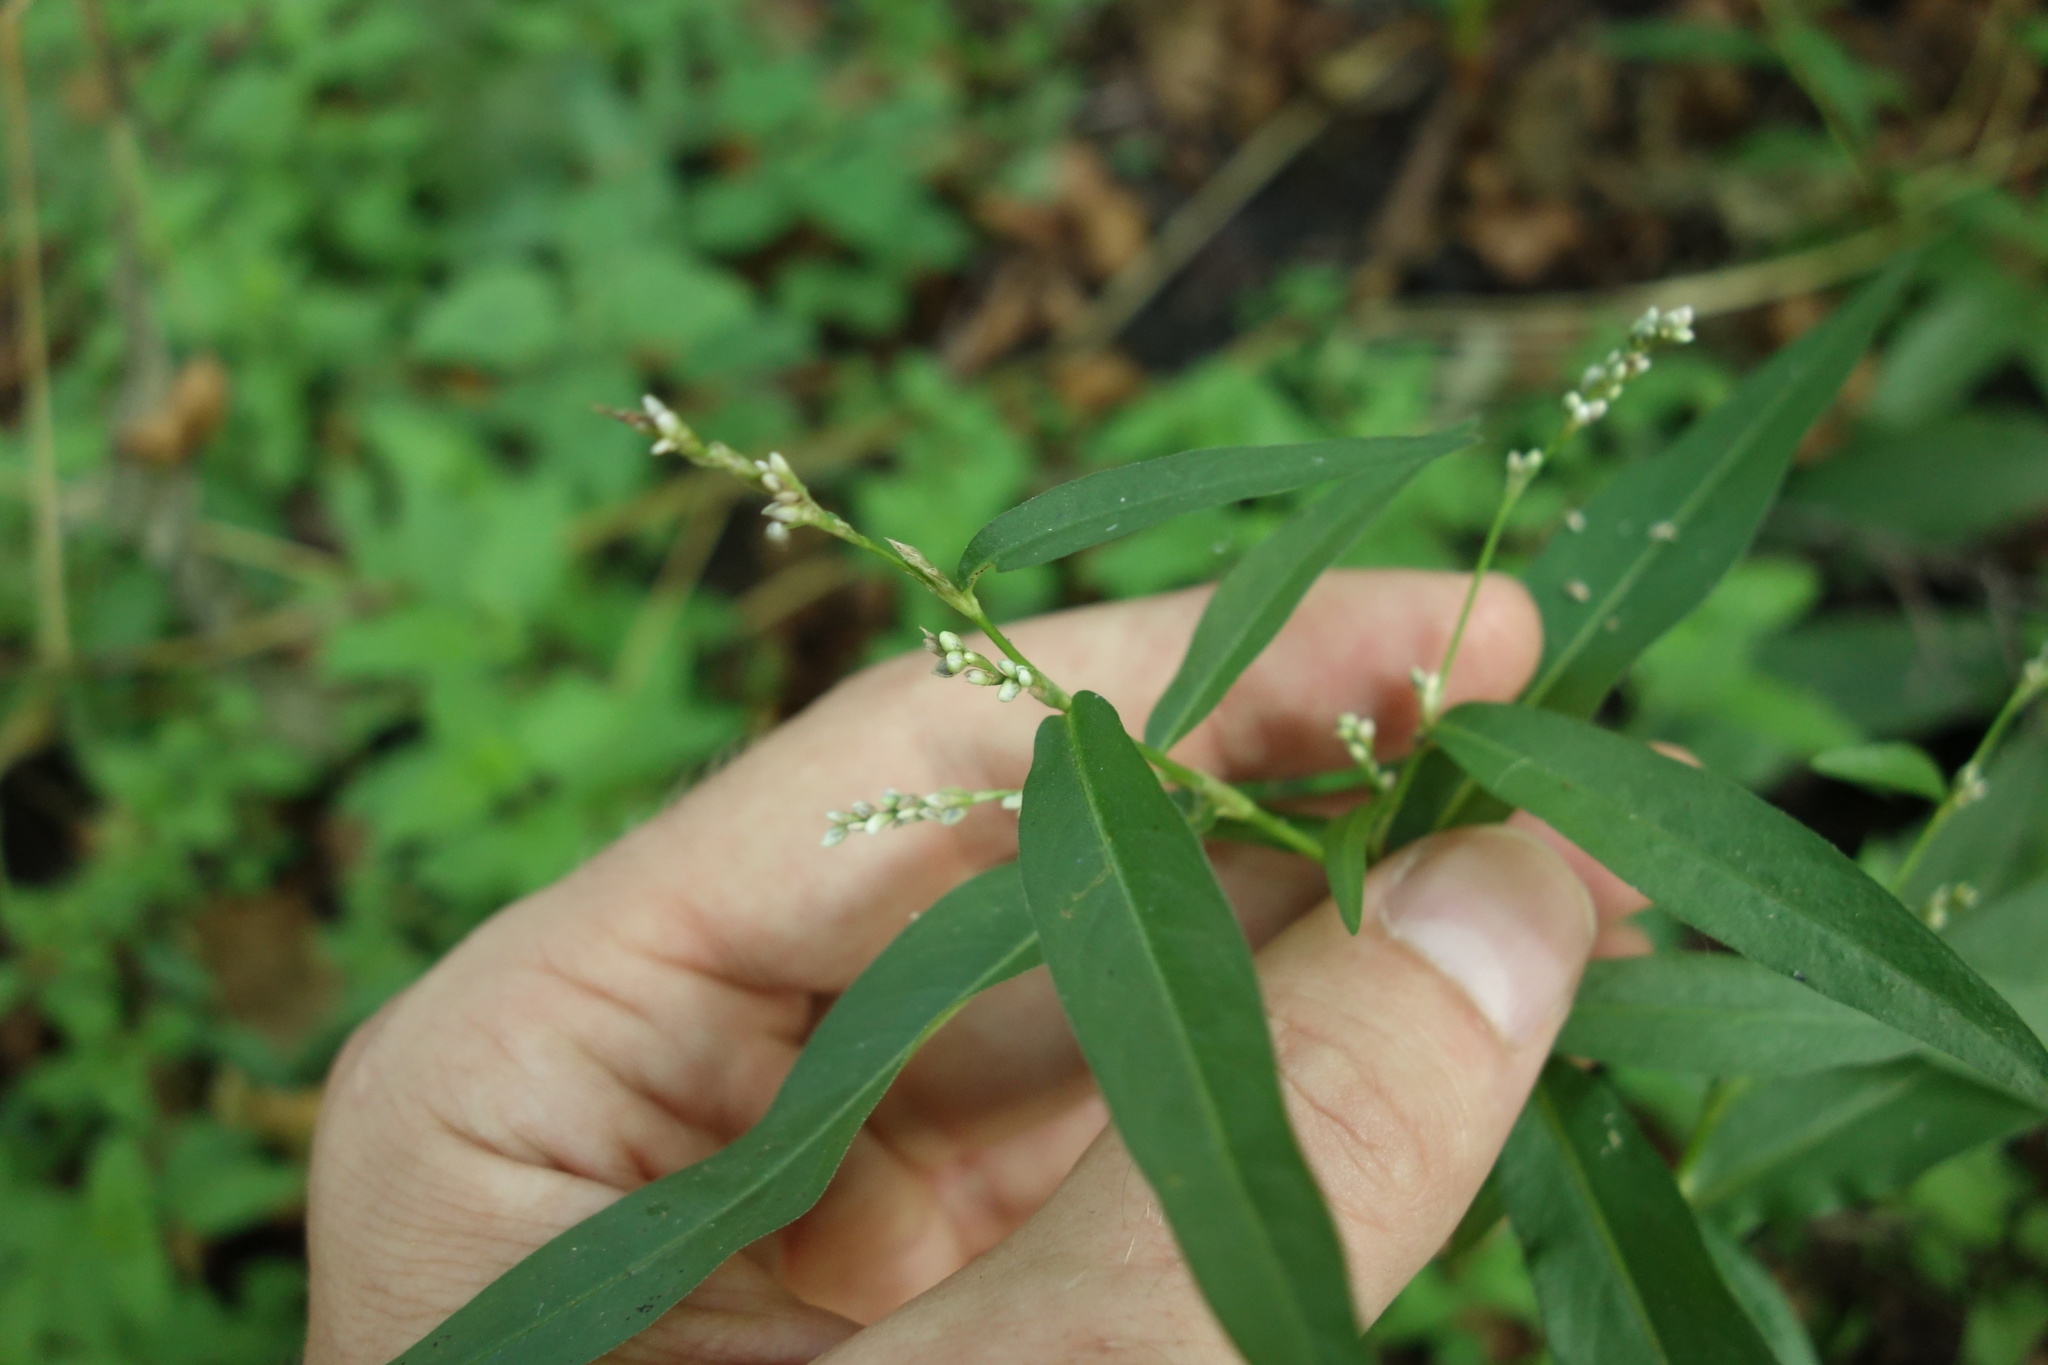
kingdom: Plantae
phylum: Tracheophyta
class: Magnoliopsida
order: Caryophyllales
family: Polygonaceae
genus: Persicaria
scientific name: Persicaria minor
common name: Small water-pepper
